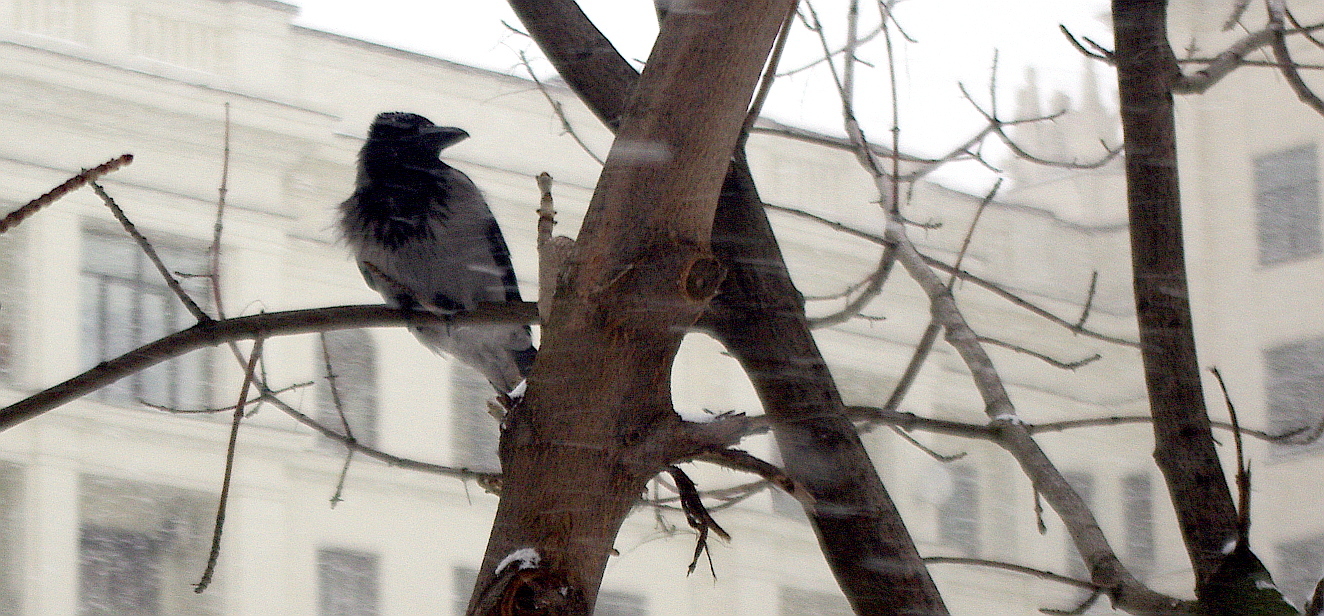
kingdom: Animalia
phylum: Chordata
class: Aves
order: Passeriformes
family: Corvidae
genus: Corvus
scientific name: Corvus cornix
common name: Hooded crow
